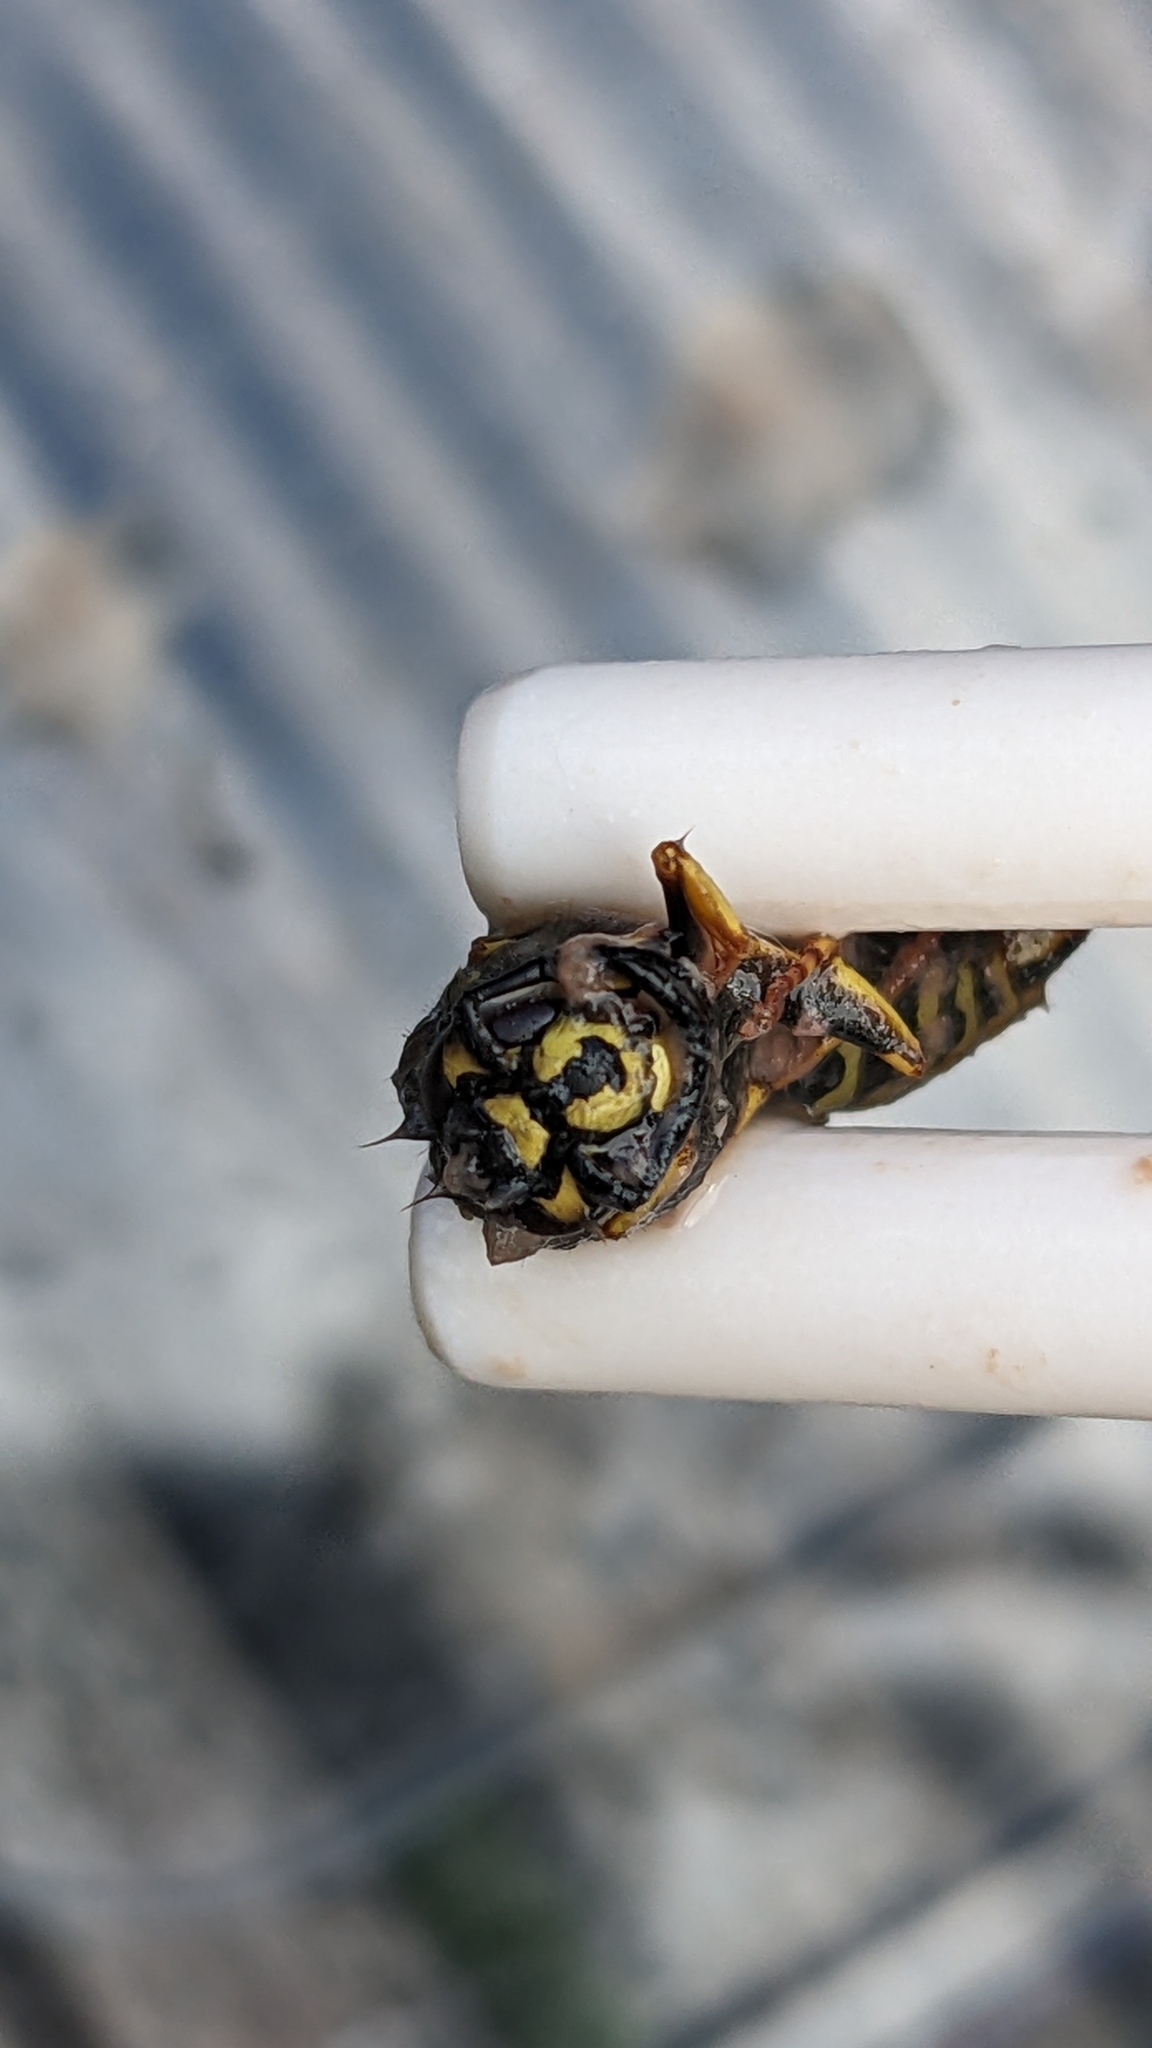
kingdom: Animalia
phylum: Arthropoda
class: Insecta
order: Hymenoptera
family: Vespidae
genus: Vespula
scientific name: Vespula vulgaris
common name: Common wasp
